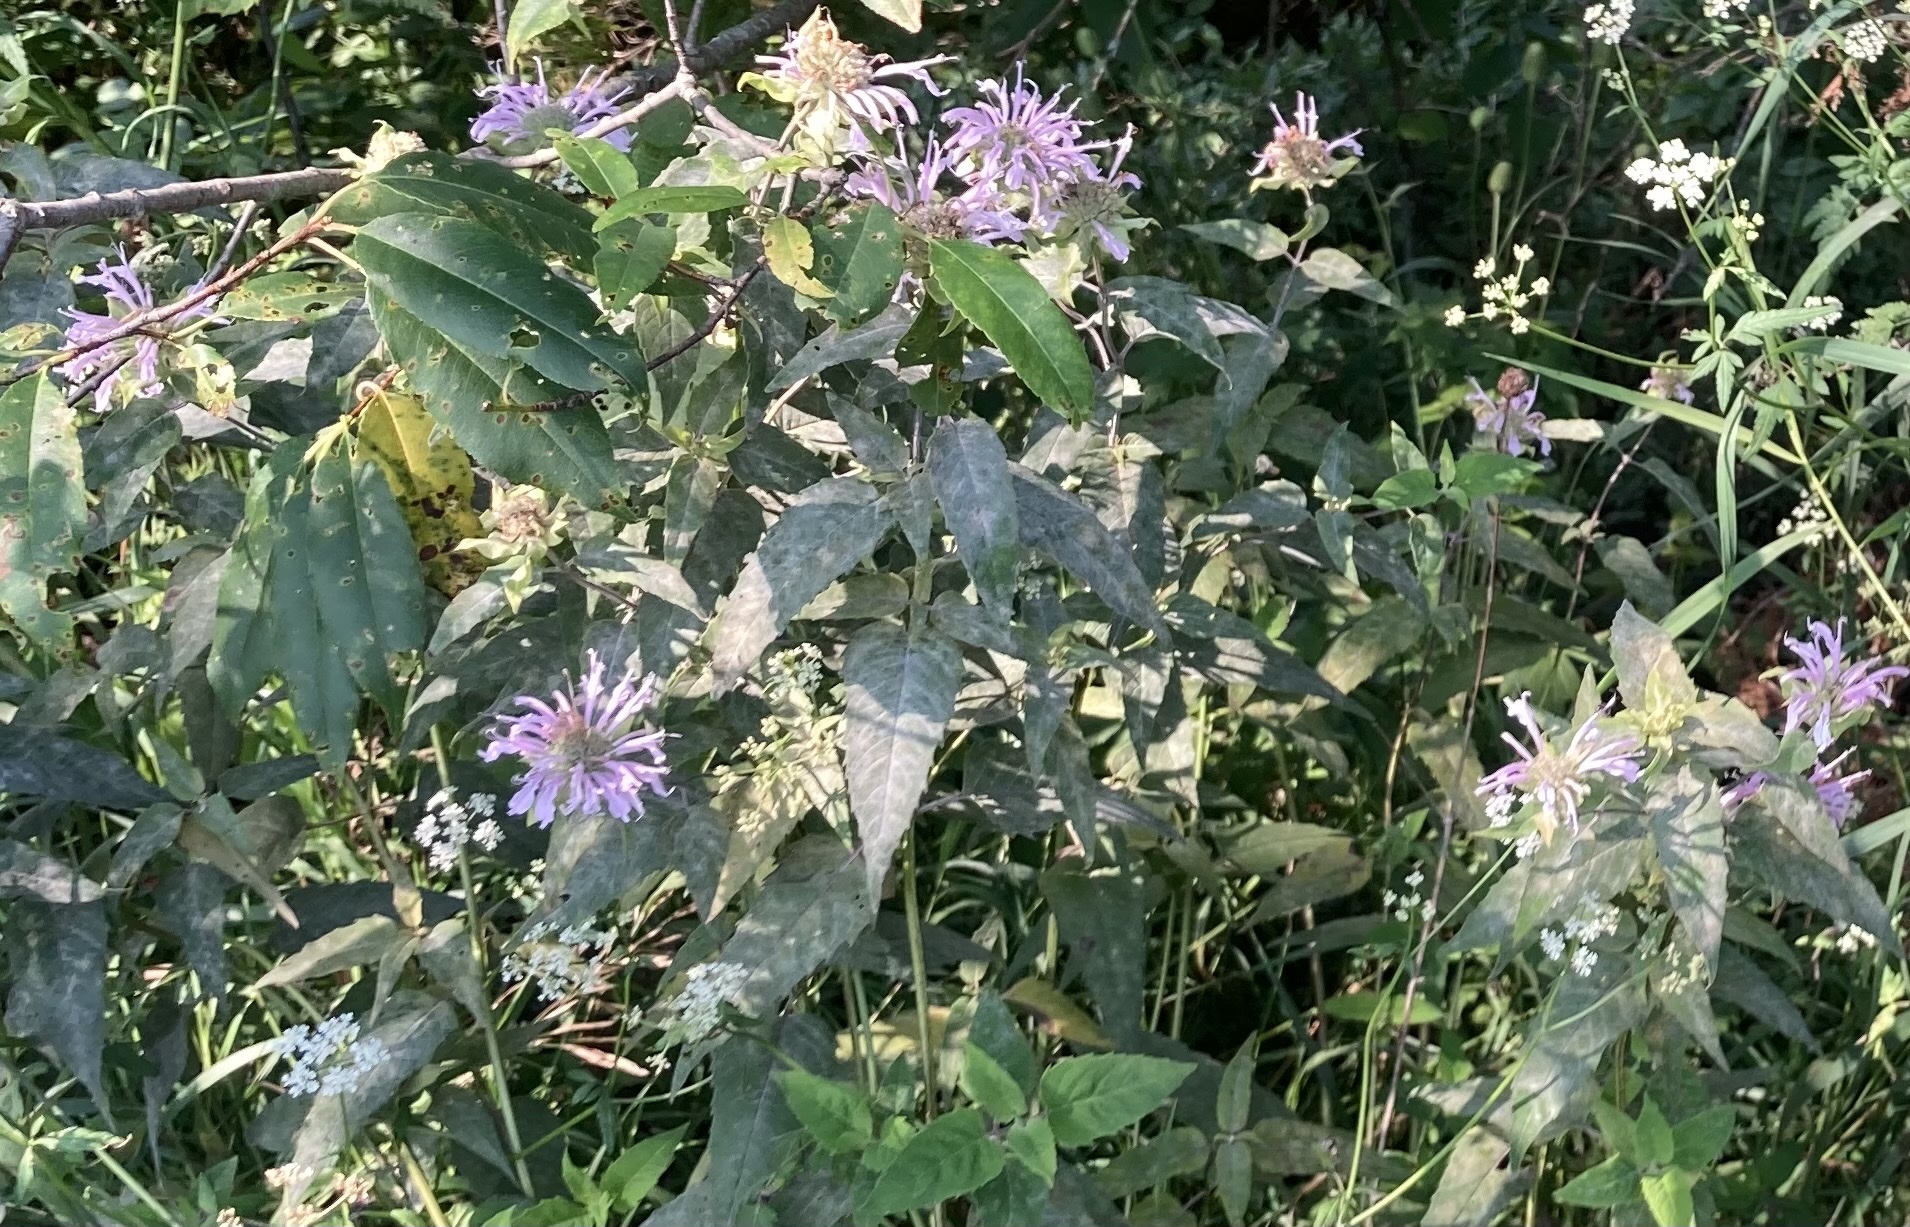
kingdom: Plantae
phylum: Tracheophyta
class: Magnoliopsida
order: Lamiales
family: Lamiaceae
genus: Monarda
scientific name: Monarda fistulosa
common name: Purple beebalm
